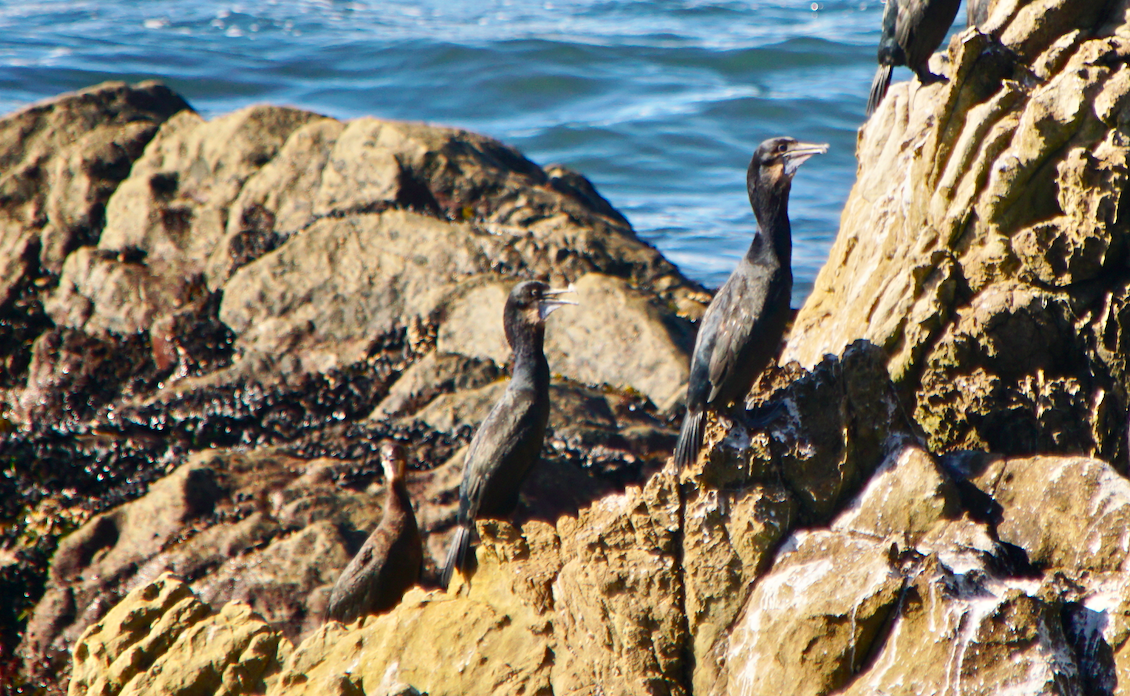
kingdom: Animalia
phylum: Chordata
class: Aves
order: Suliformes
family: Phalacrocoracidae
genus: Urile
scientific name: Urile penicillatus
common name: Brandt's cormorant
